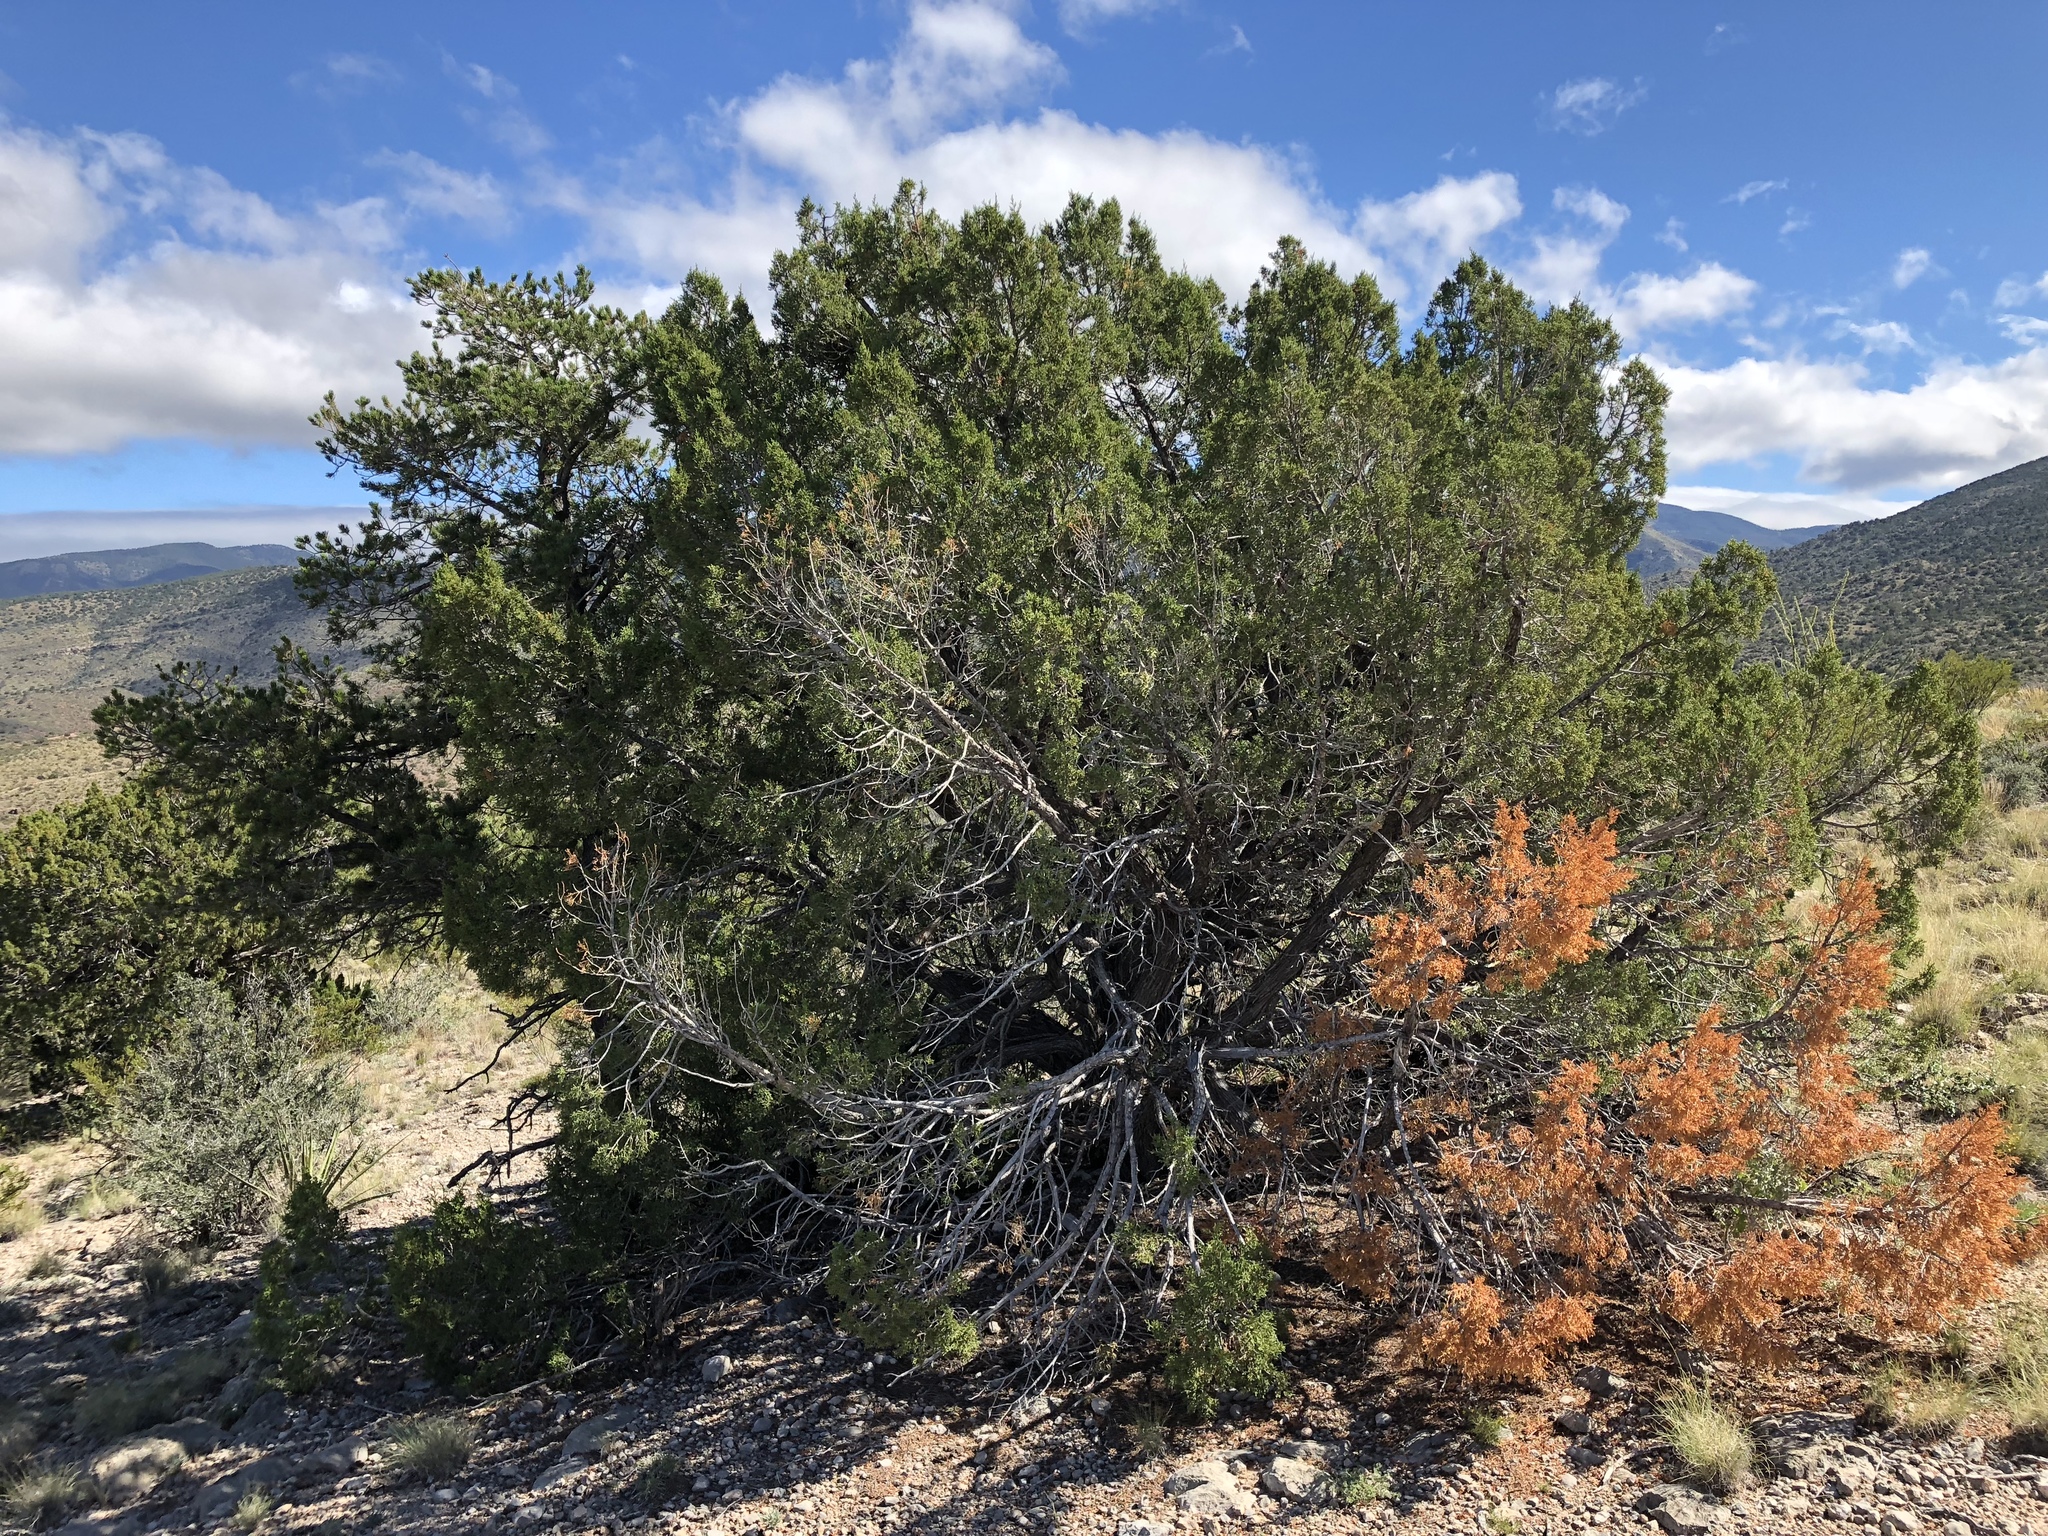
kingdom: Plantae
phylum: Tracheophyta
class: Pinopsida
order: Pinales
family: Cupressaceae
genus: Juniperus
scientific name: Juniperus monosperma
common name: One-seed juniper
